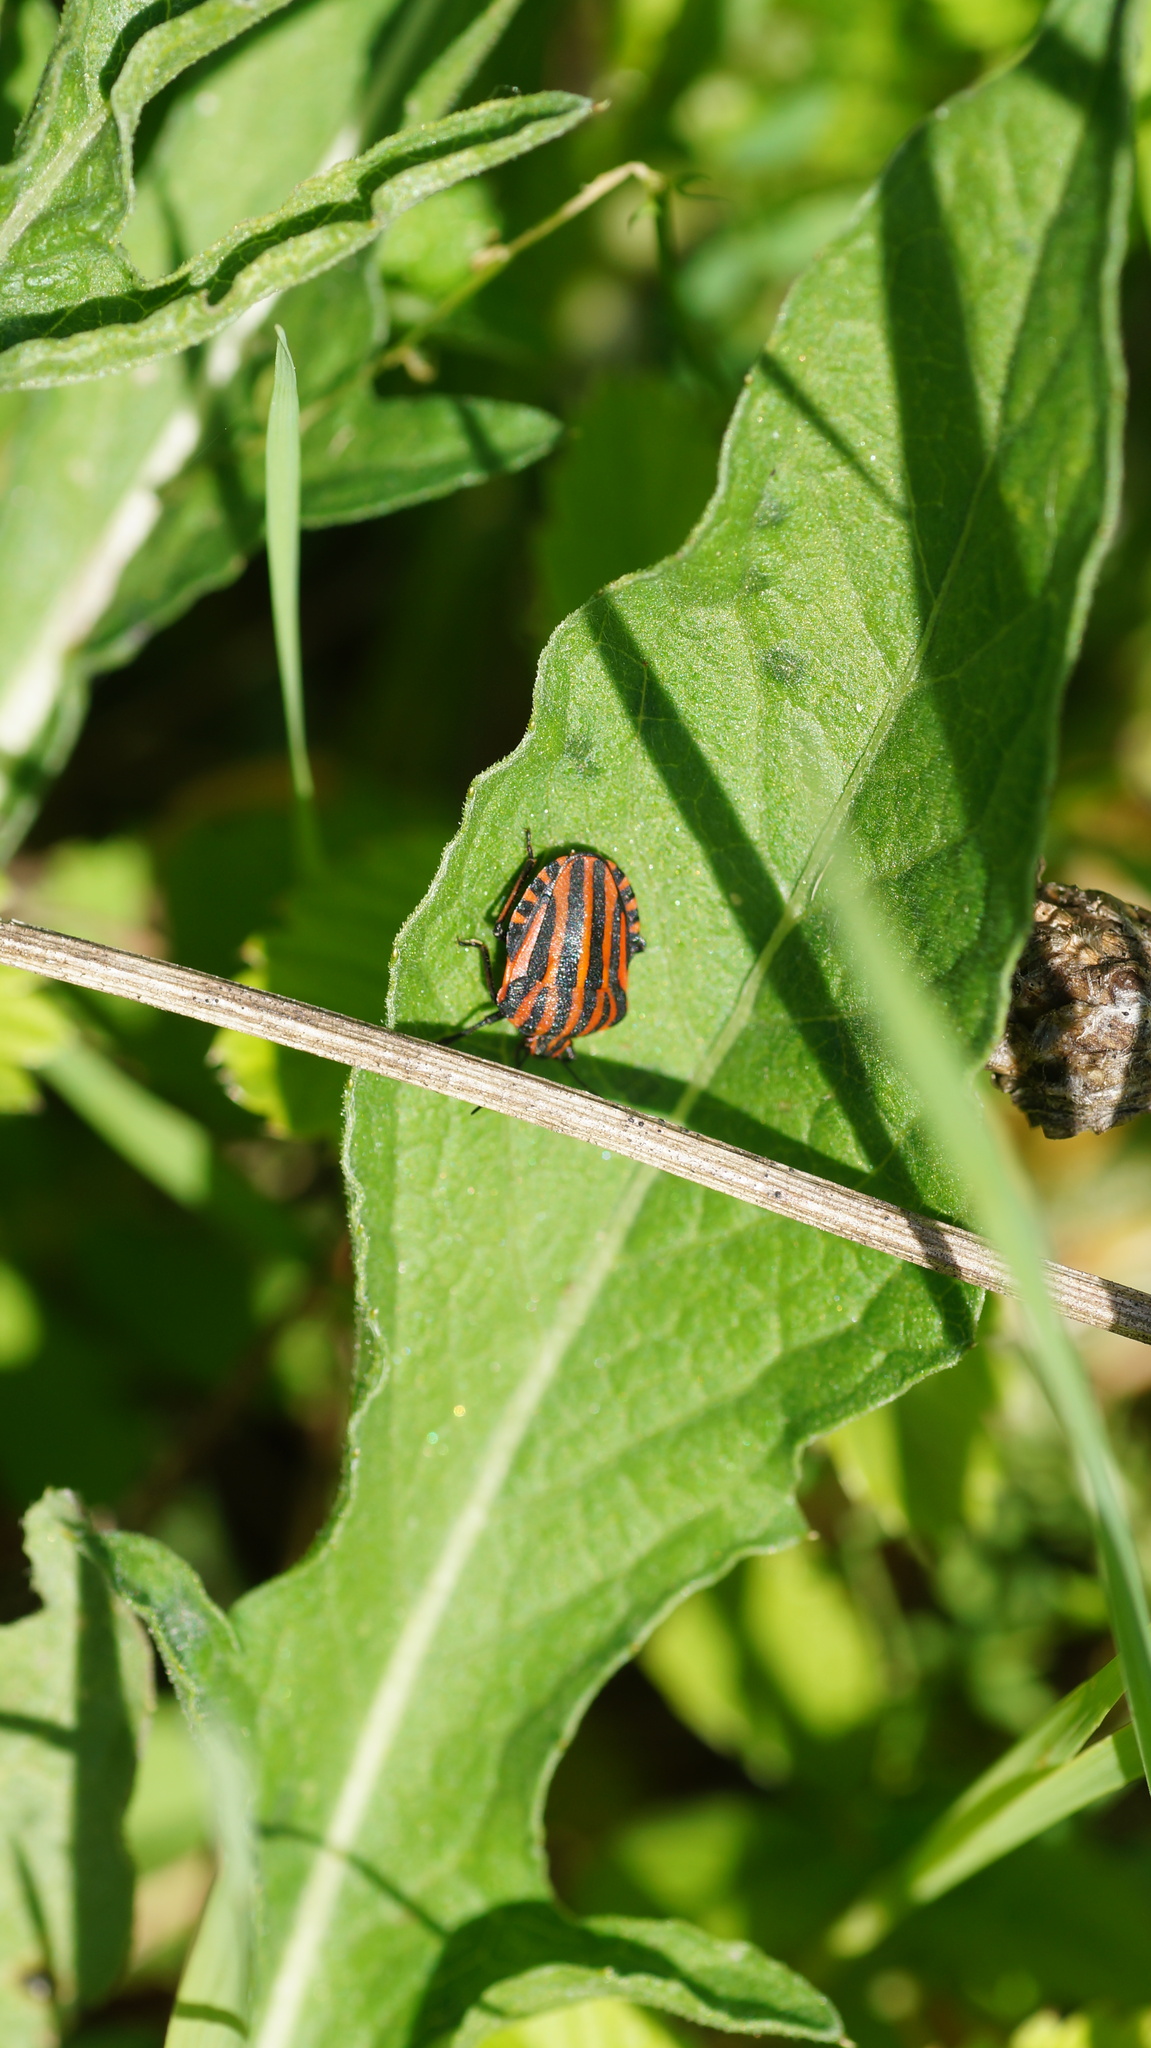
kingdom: Animalia
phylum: Arthropoda
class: Insecta
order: Hemiptera
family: Pentatomidae
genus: Graphosoma
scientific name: Graphosoma italicum
